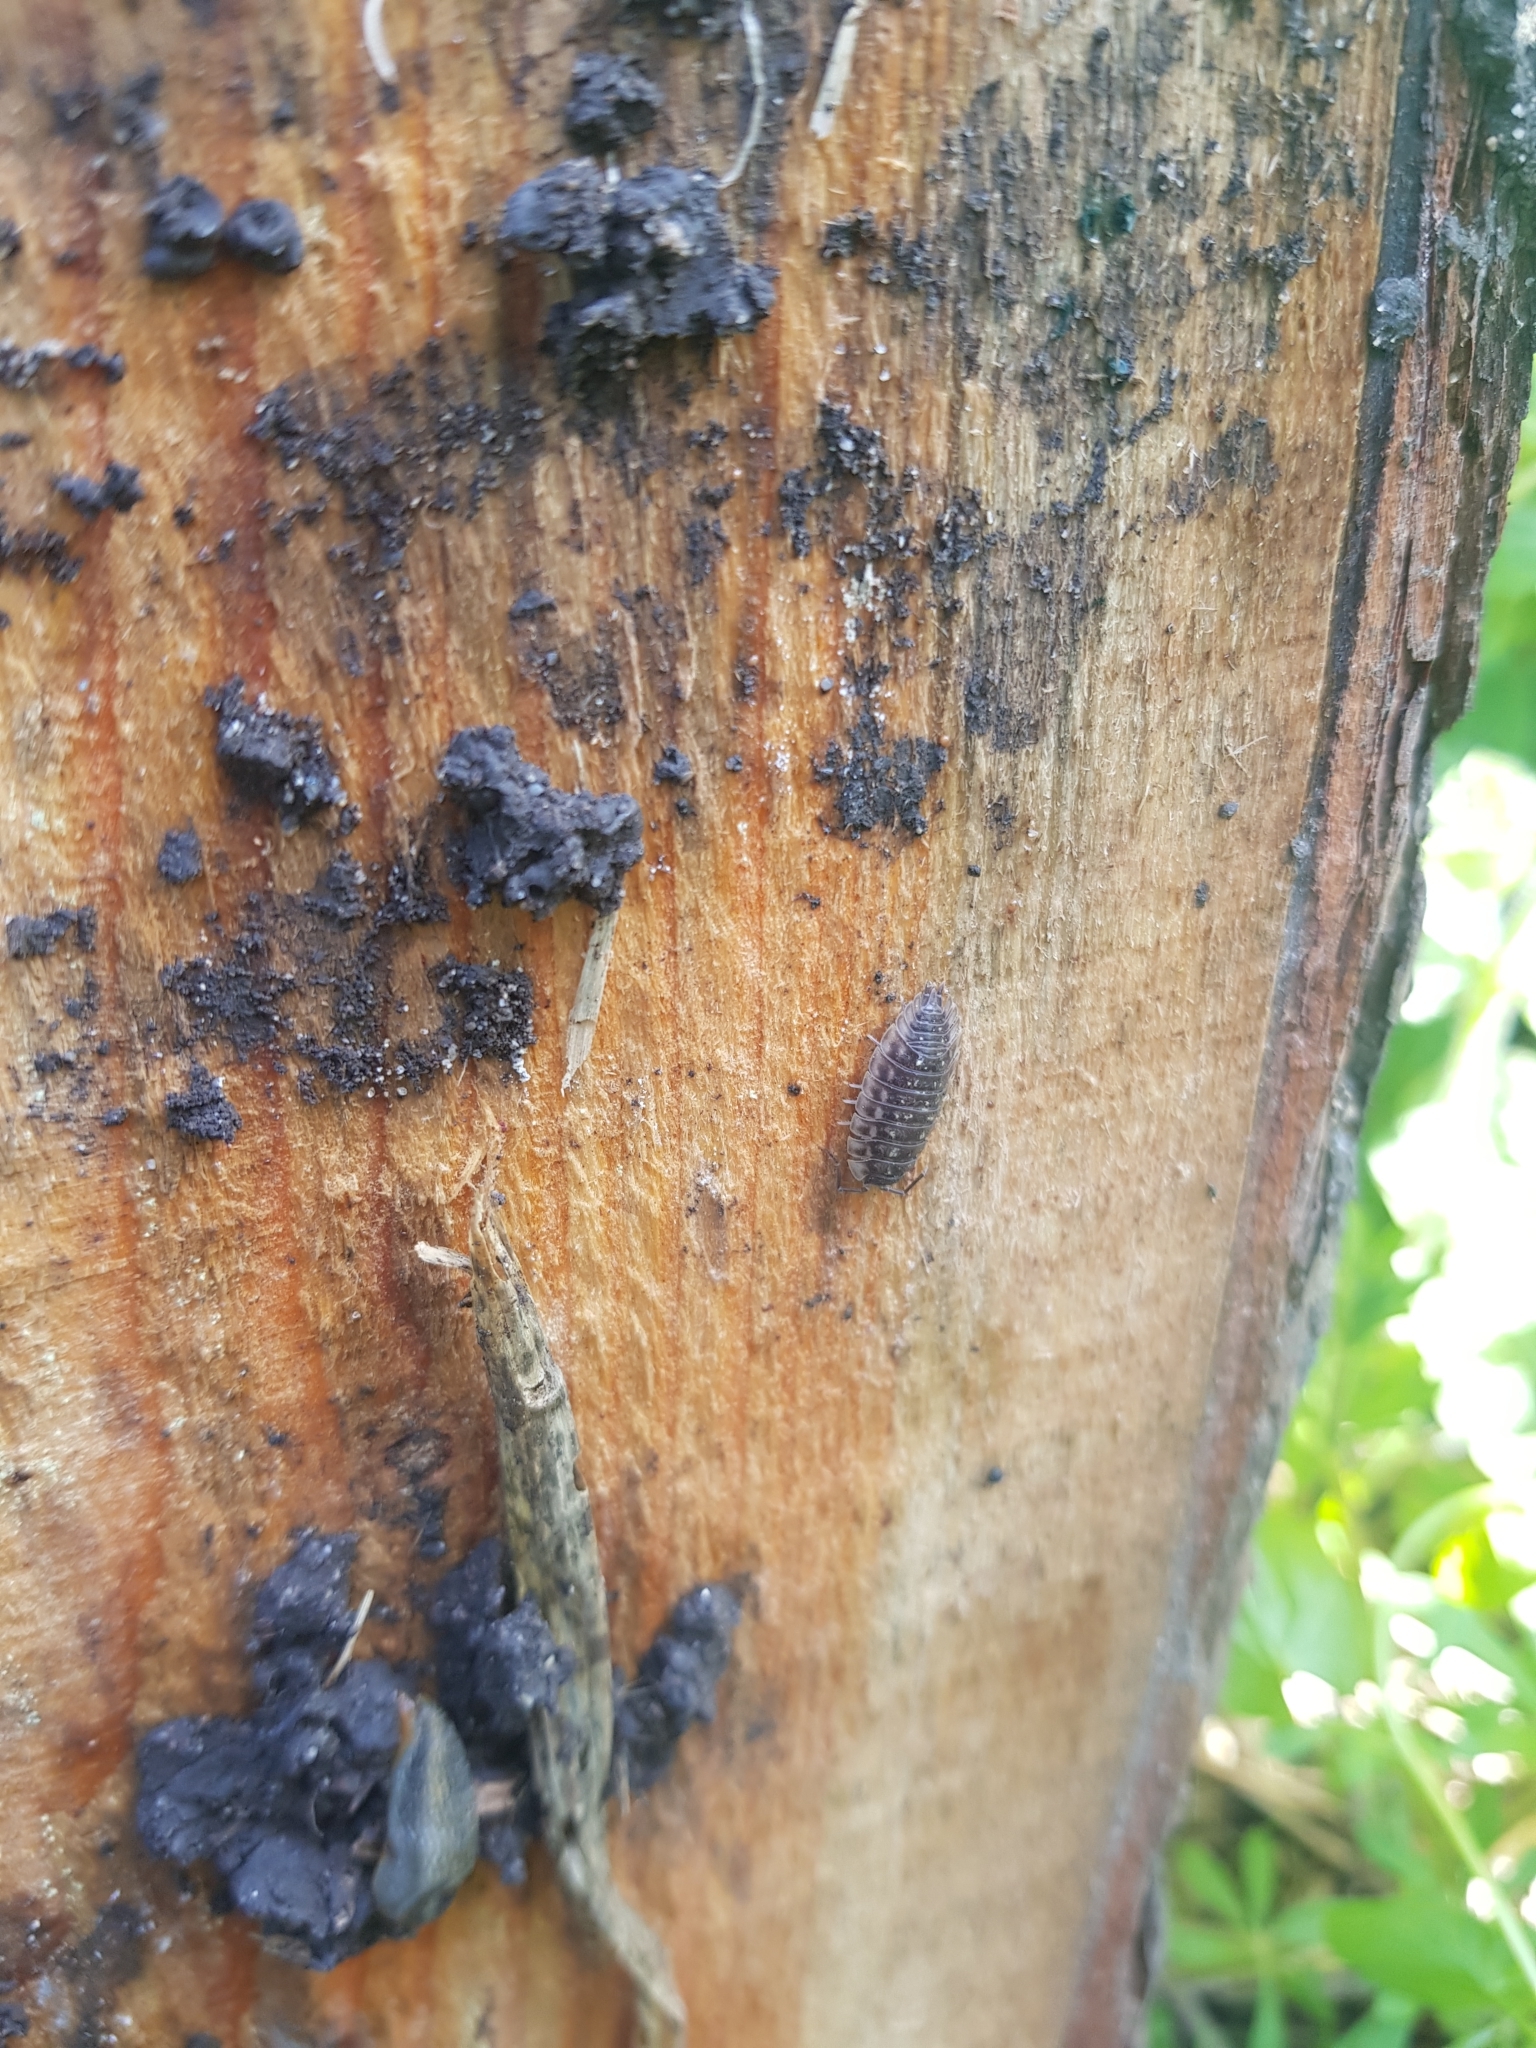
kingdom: Animalia
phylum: Arthropoda
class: Malacostraca
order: Isopoda
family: Oniscidae
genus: Oniscus
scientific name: Oniscus asellus
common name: Common shiny woodlouse
